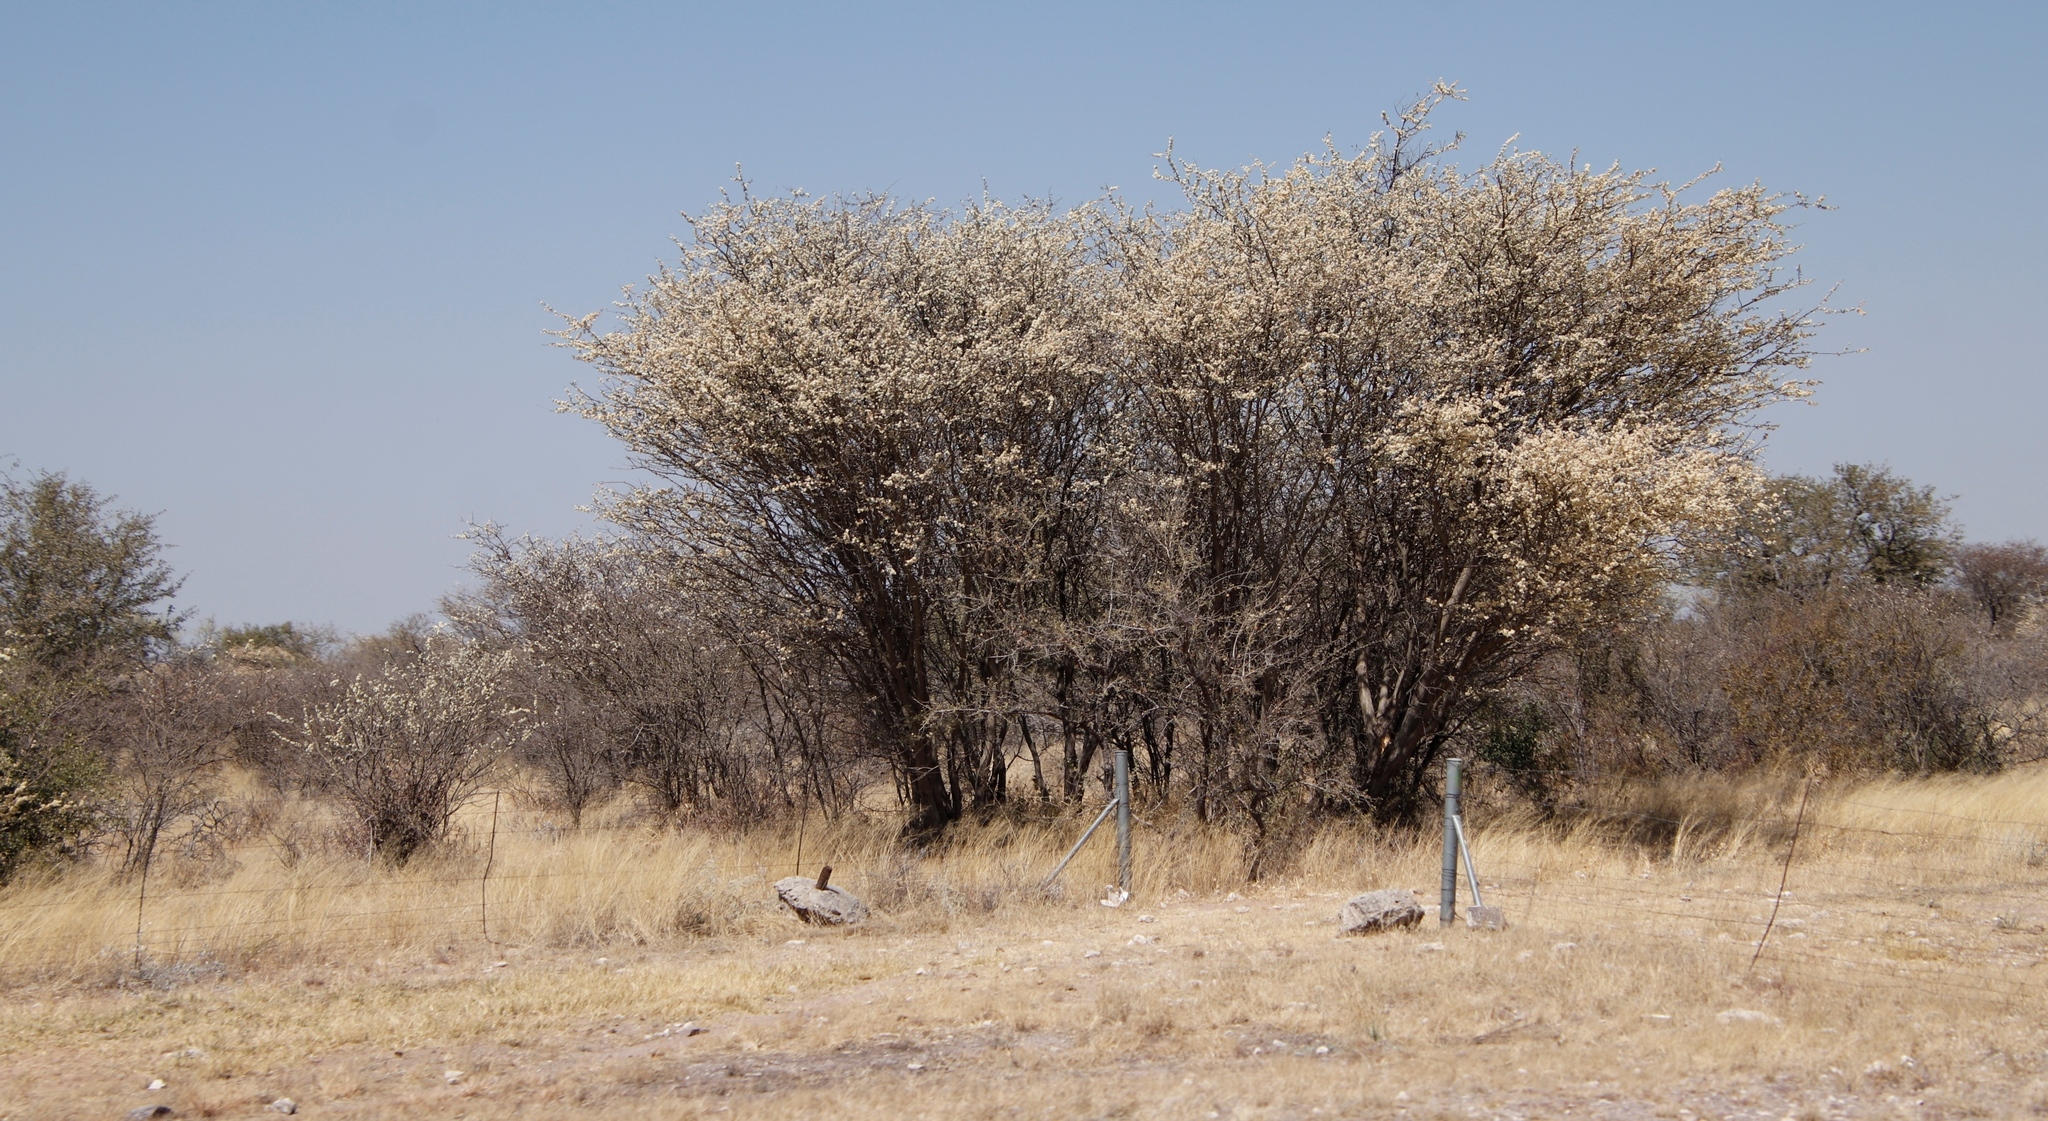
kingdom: Plantae
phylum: Tracheophyta
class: Magnoliopsida
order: Fabales
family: Fabaceae
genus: Senegalia
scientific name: Senegalia mellifera
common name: Hookthorn
